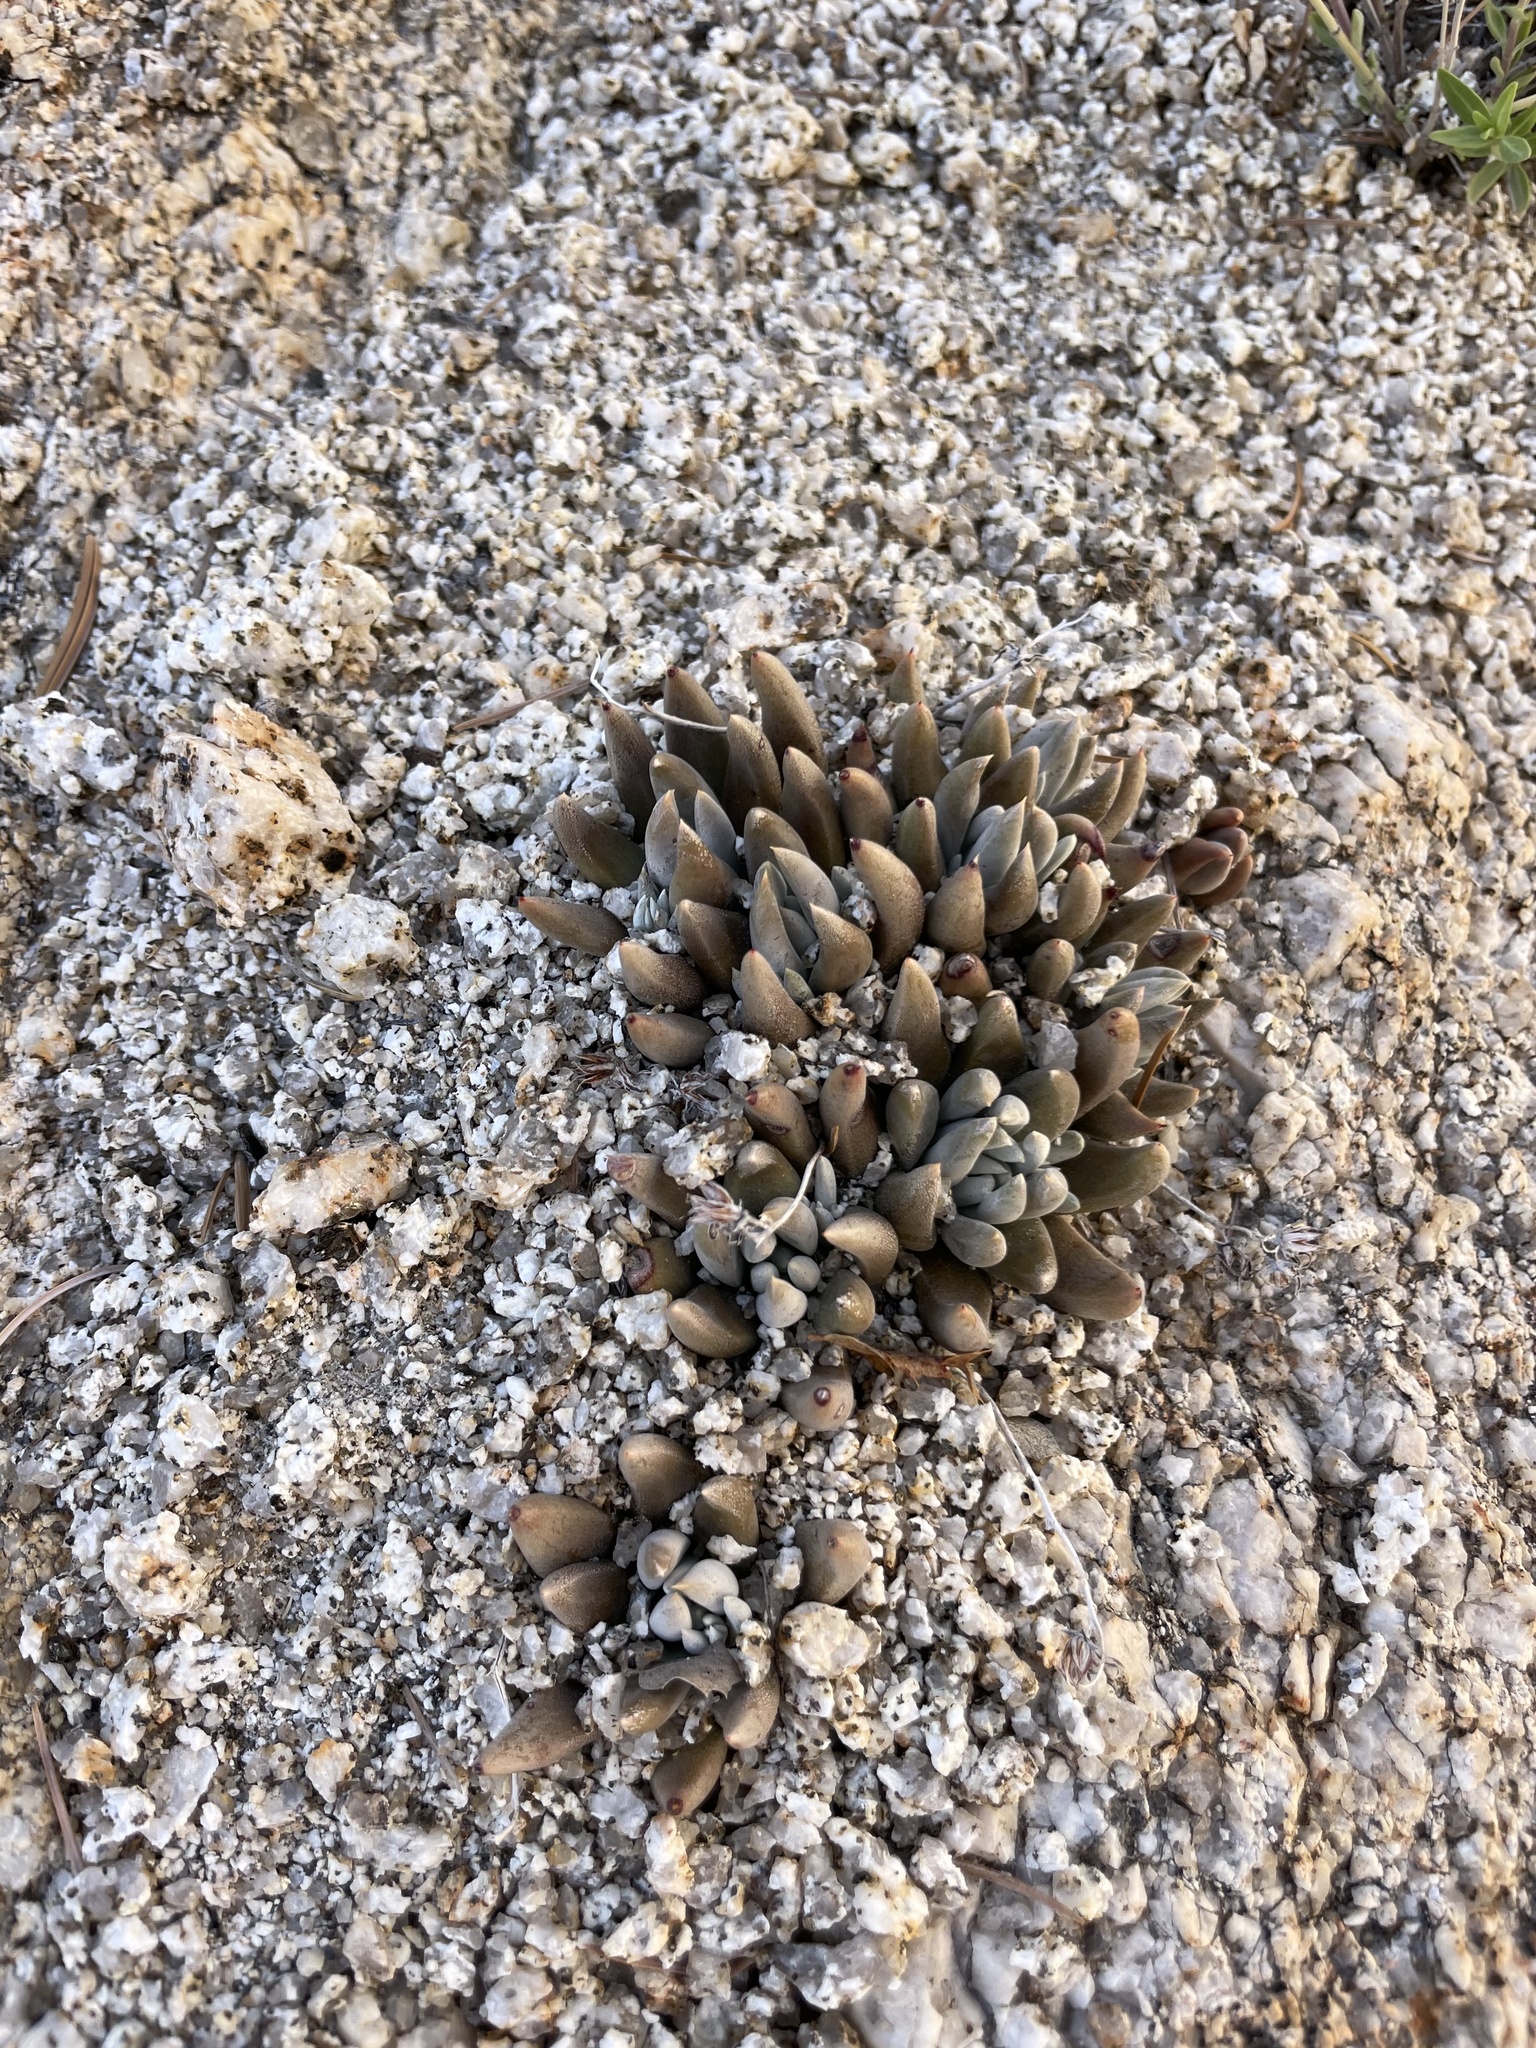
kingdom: Plantae
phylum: Tracheophyta
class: Magnoliopsida
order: Saxifragales
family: Crassulaceae
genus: Dudleya
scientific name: Dudleya abramsii
